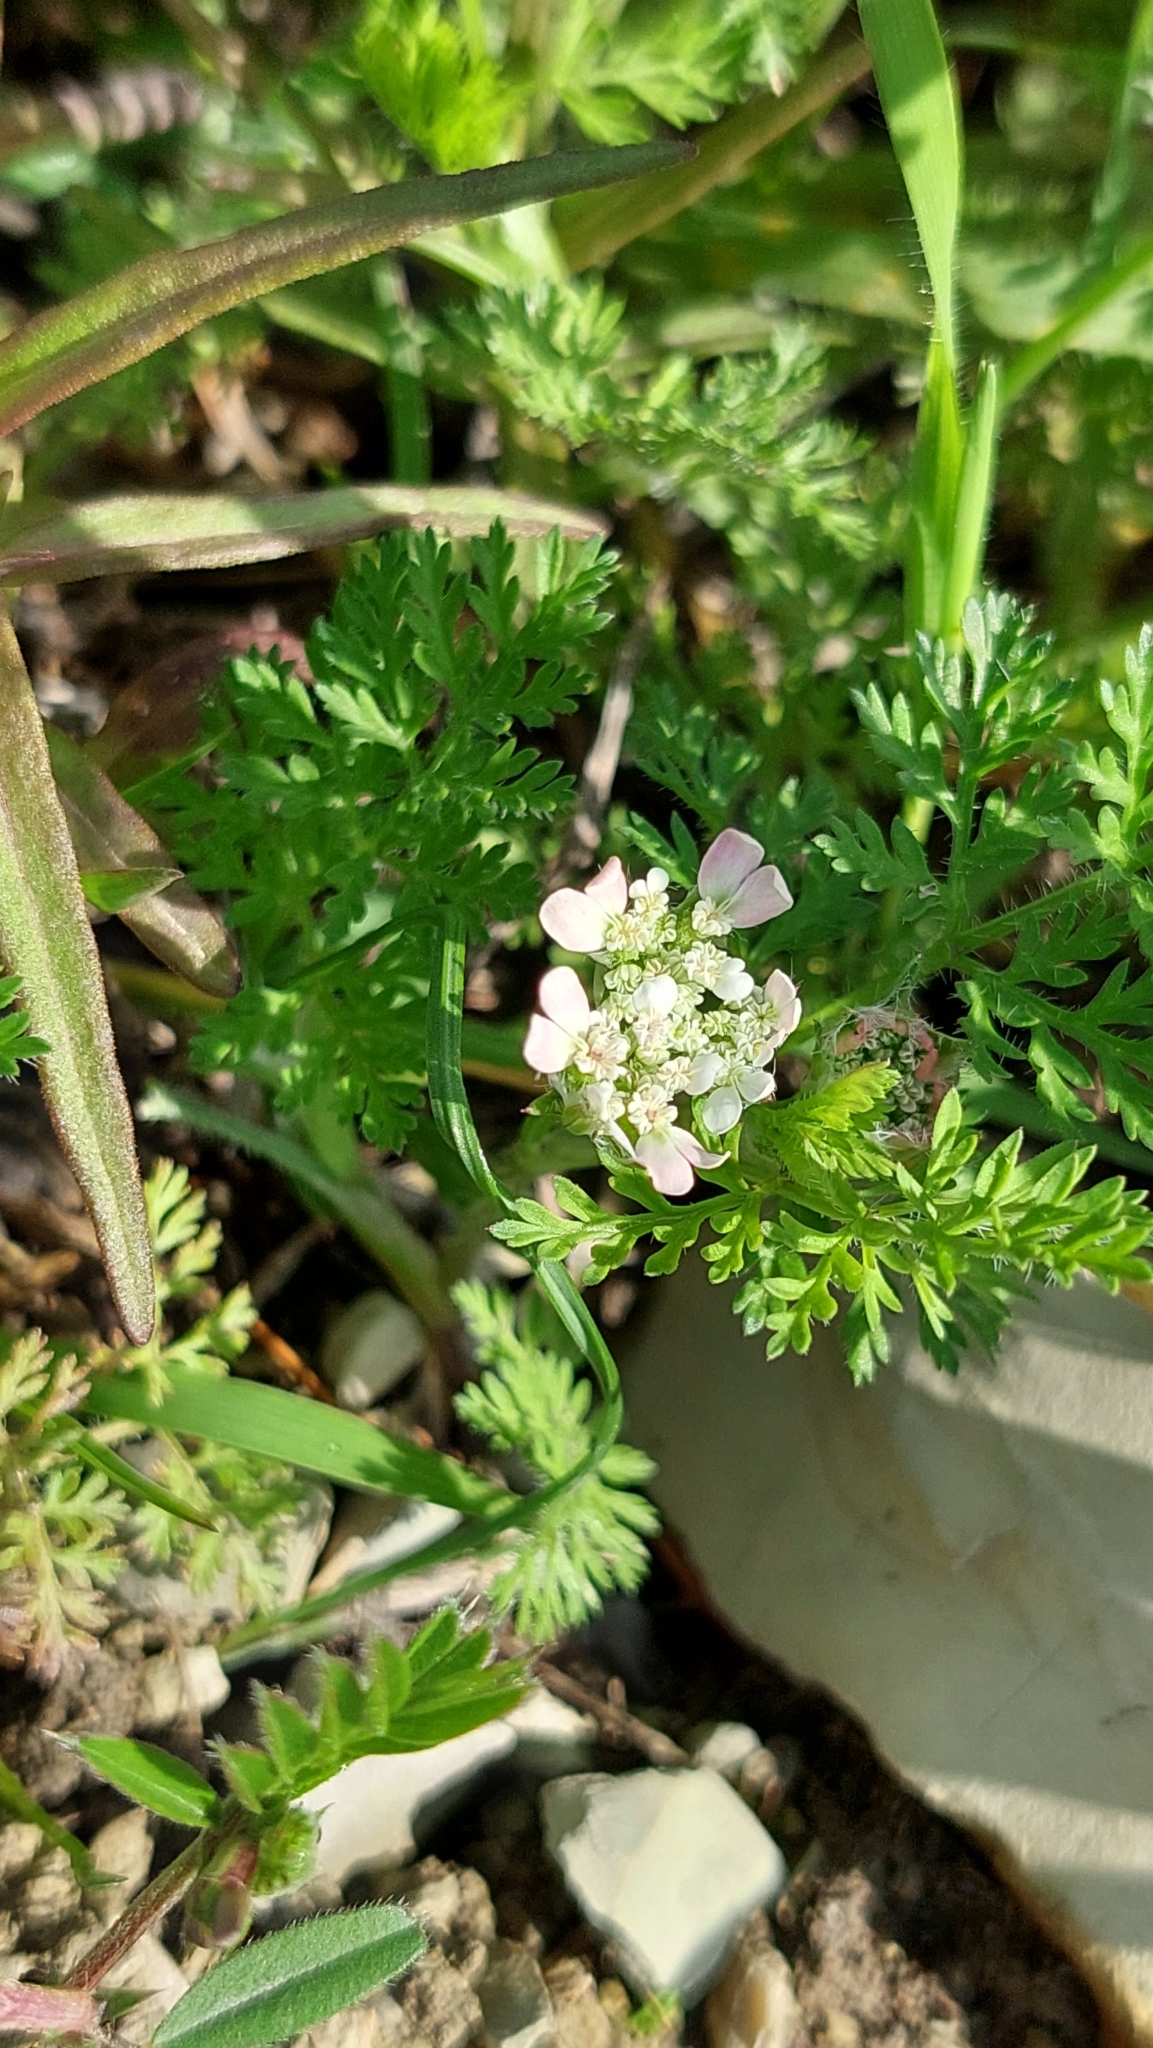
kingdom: Plantae
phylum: Tracheophyta
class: Magnoliopsida
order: Apiales
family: Apiaceae
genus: Orlaya
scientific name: Orlaya daucoides
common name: Flat-fruit orlaya
